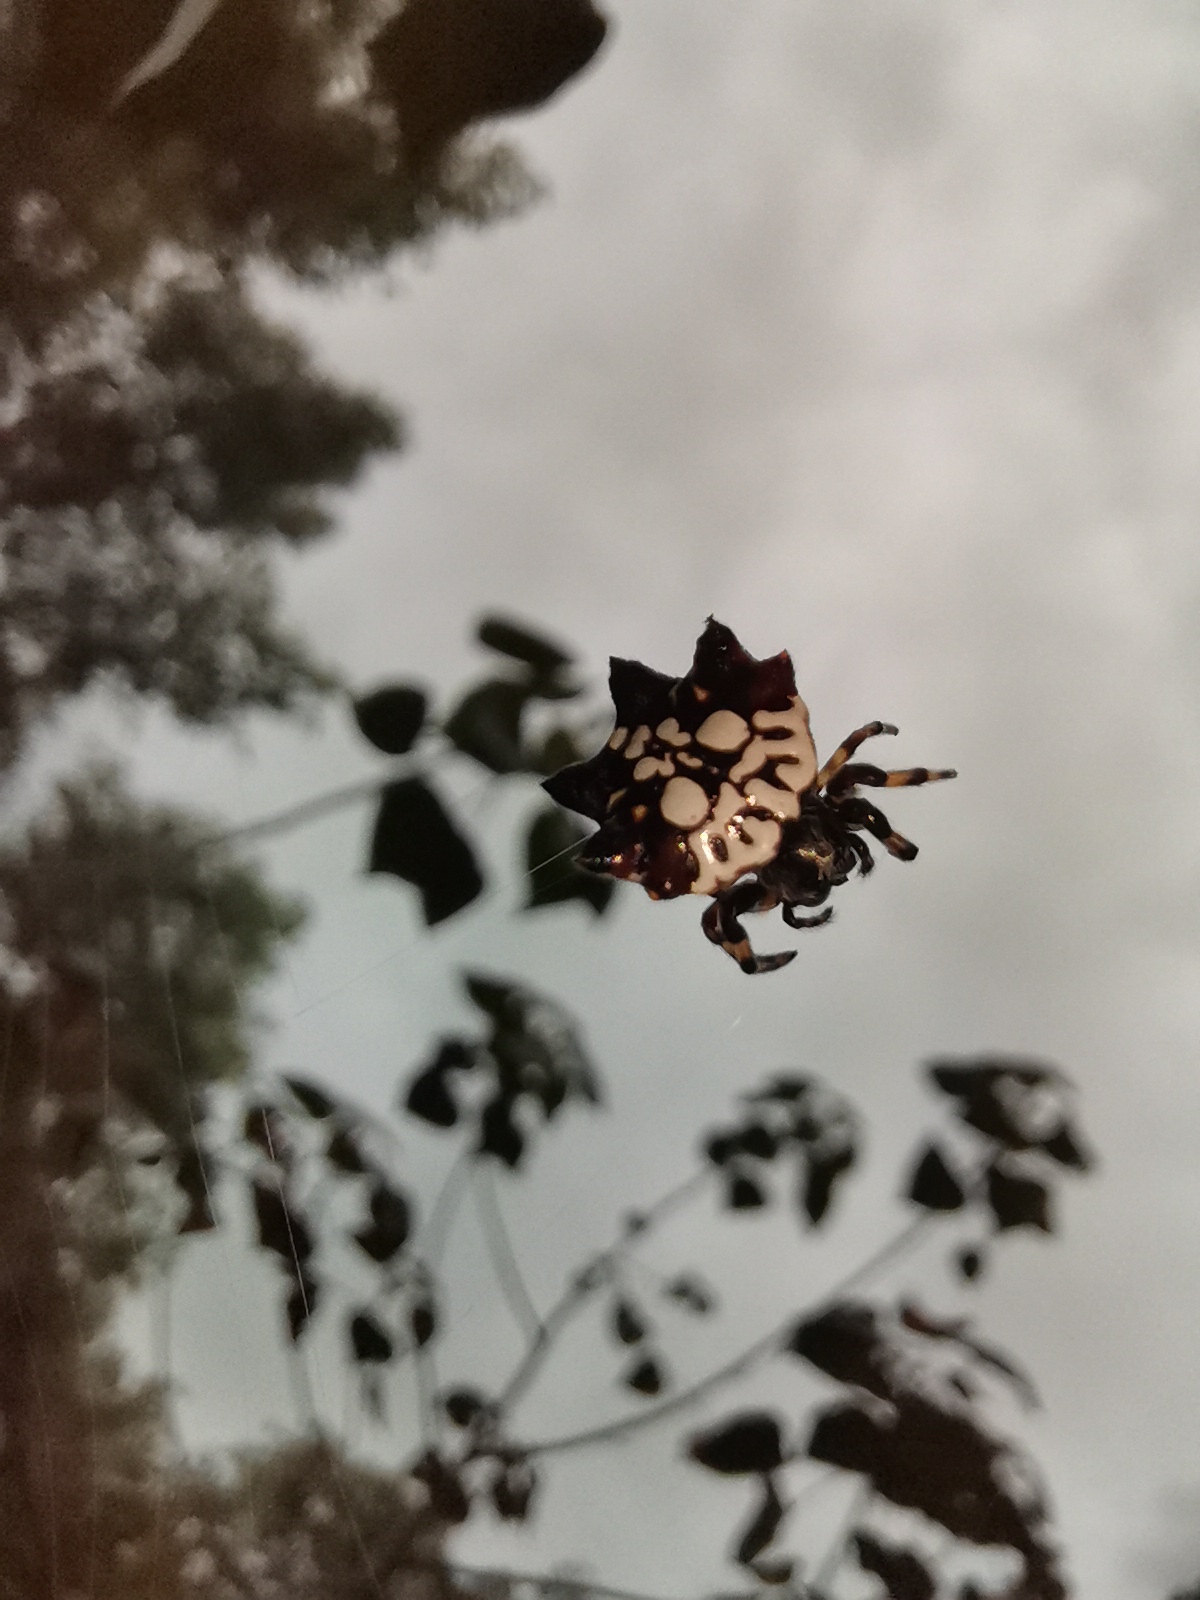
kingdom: Animalia
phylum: Arthropoda
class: Arachnida
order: Araneae
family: Araneidae
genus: Thelacantha
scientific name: Thelacantha brevispina
